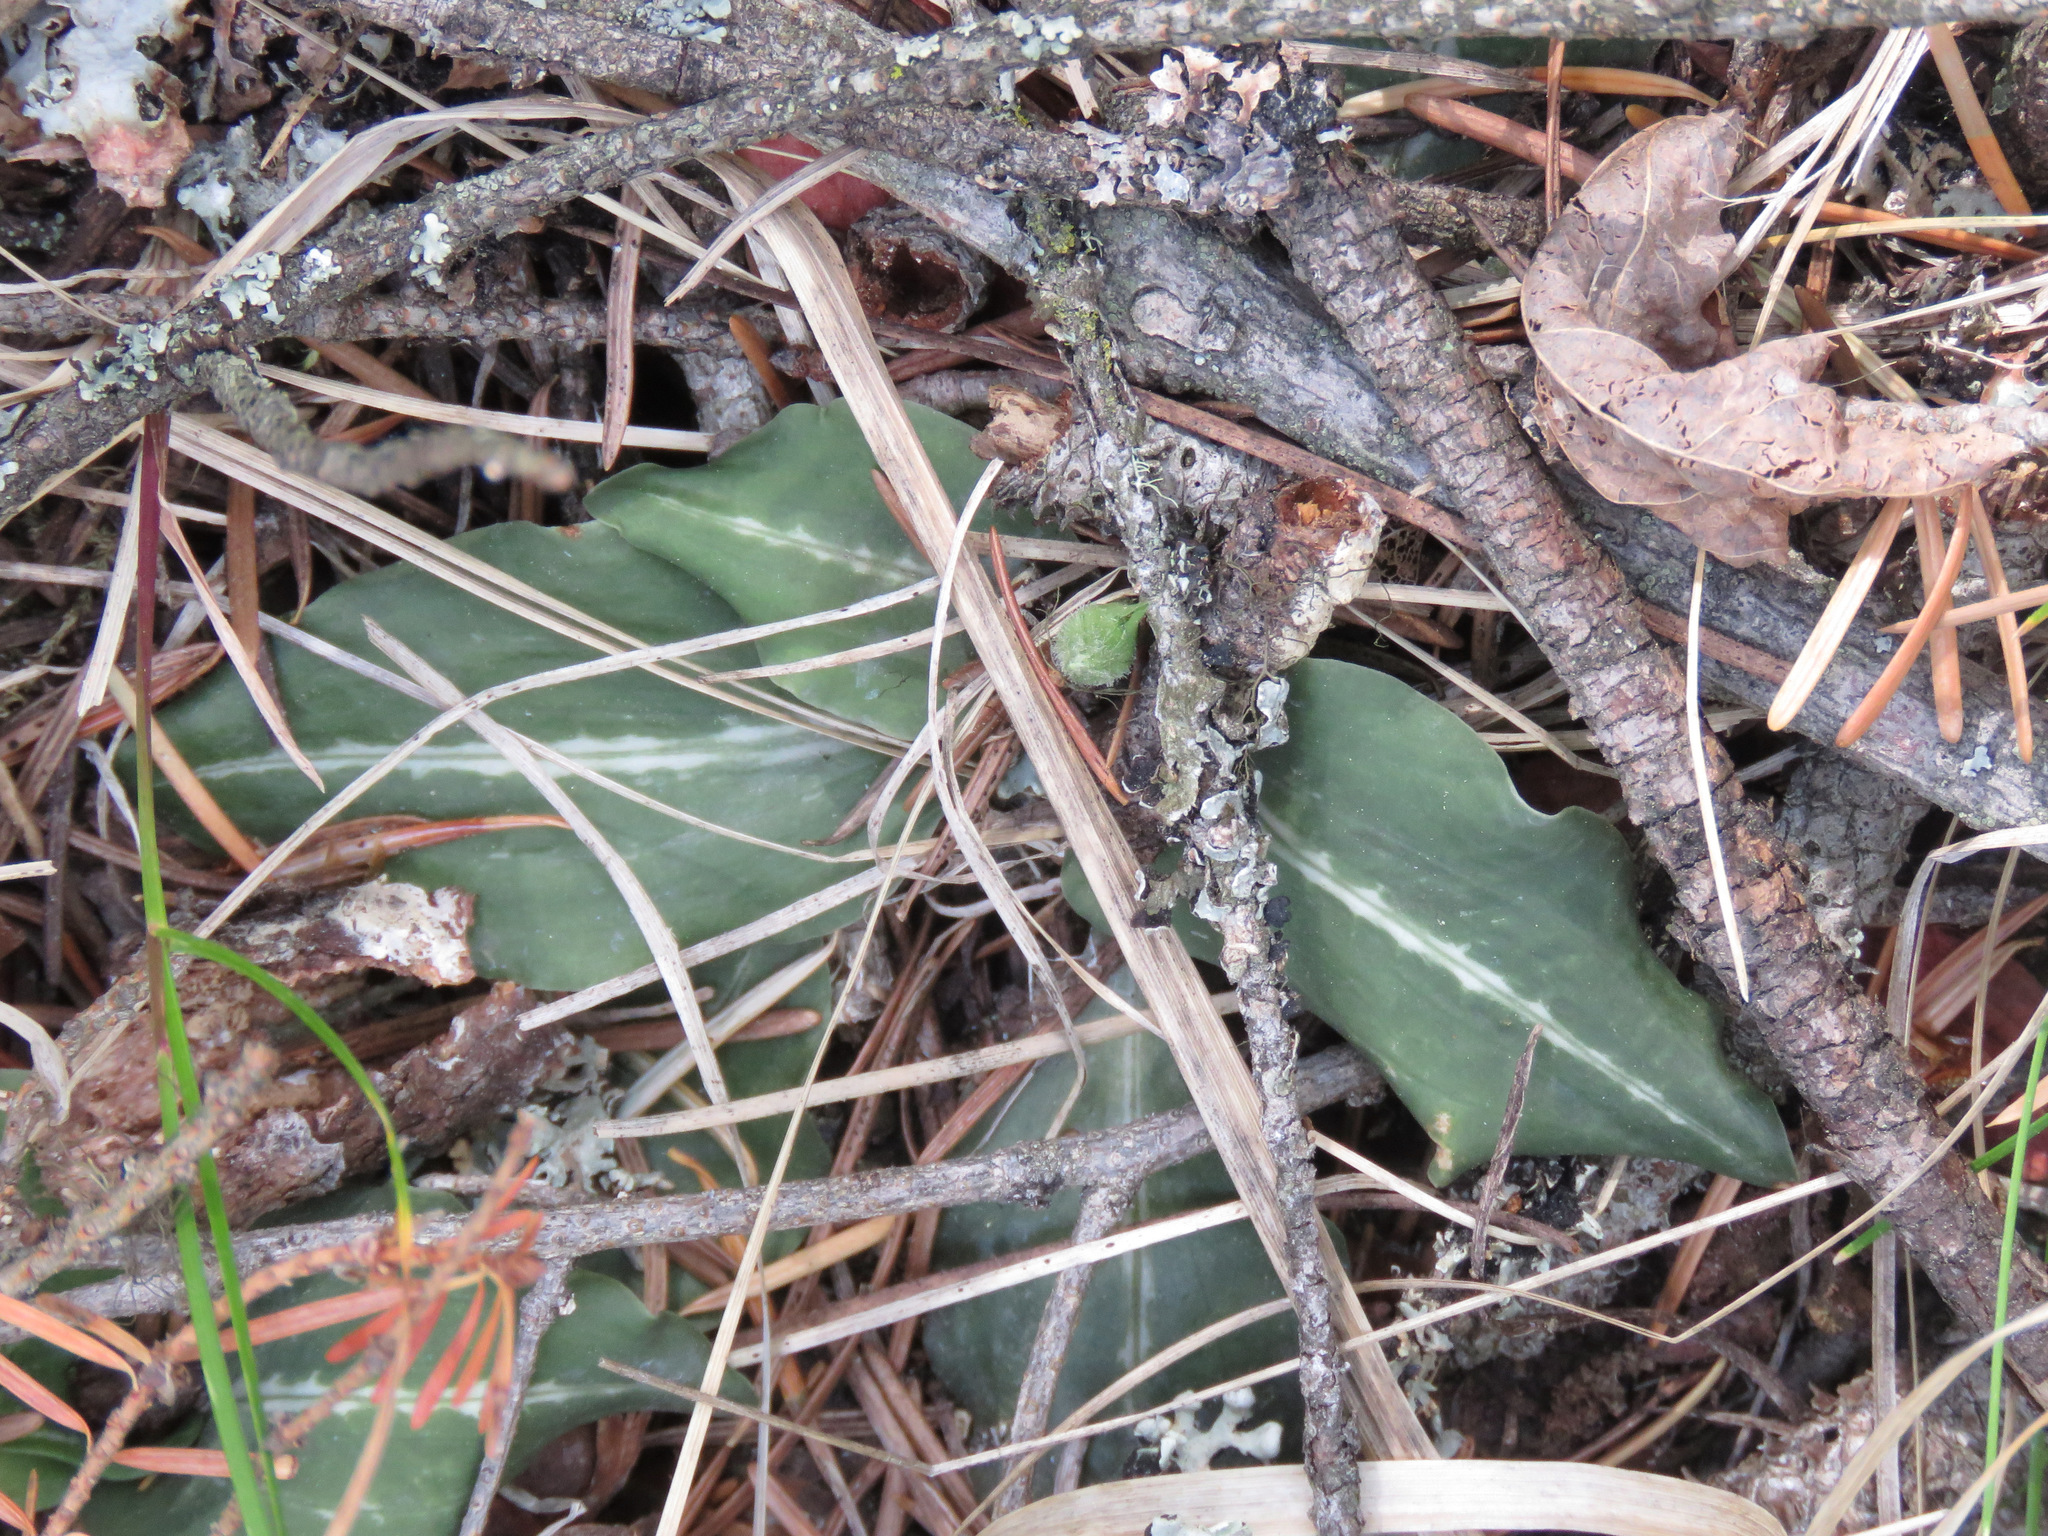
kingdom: Plantae
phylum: Tracheophyta
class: Liliopsida
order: Asparagales
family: Orchidaceae
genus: Goodyera
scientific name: Goodyera oblongifolia
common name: Giant rattlesnake-plantain
